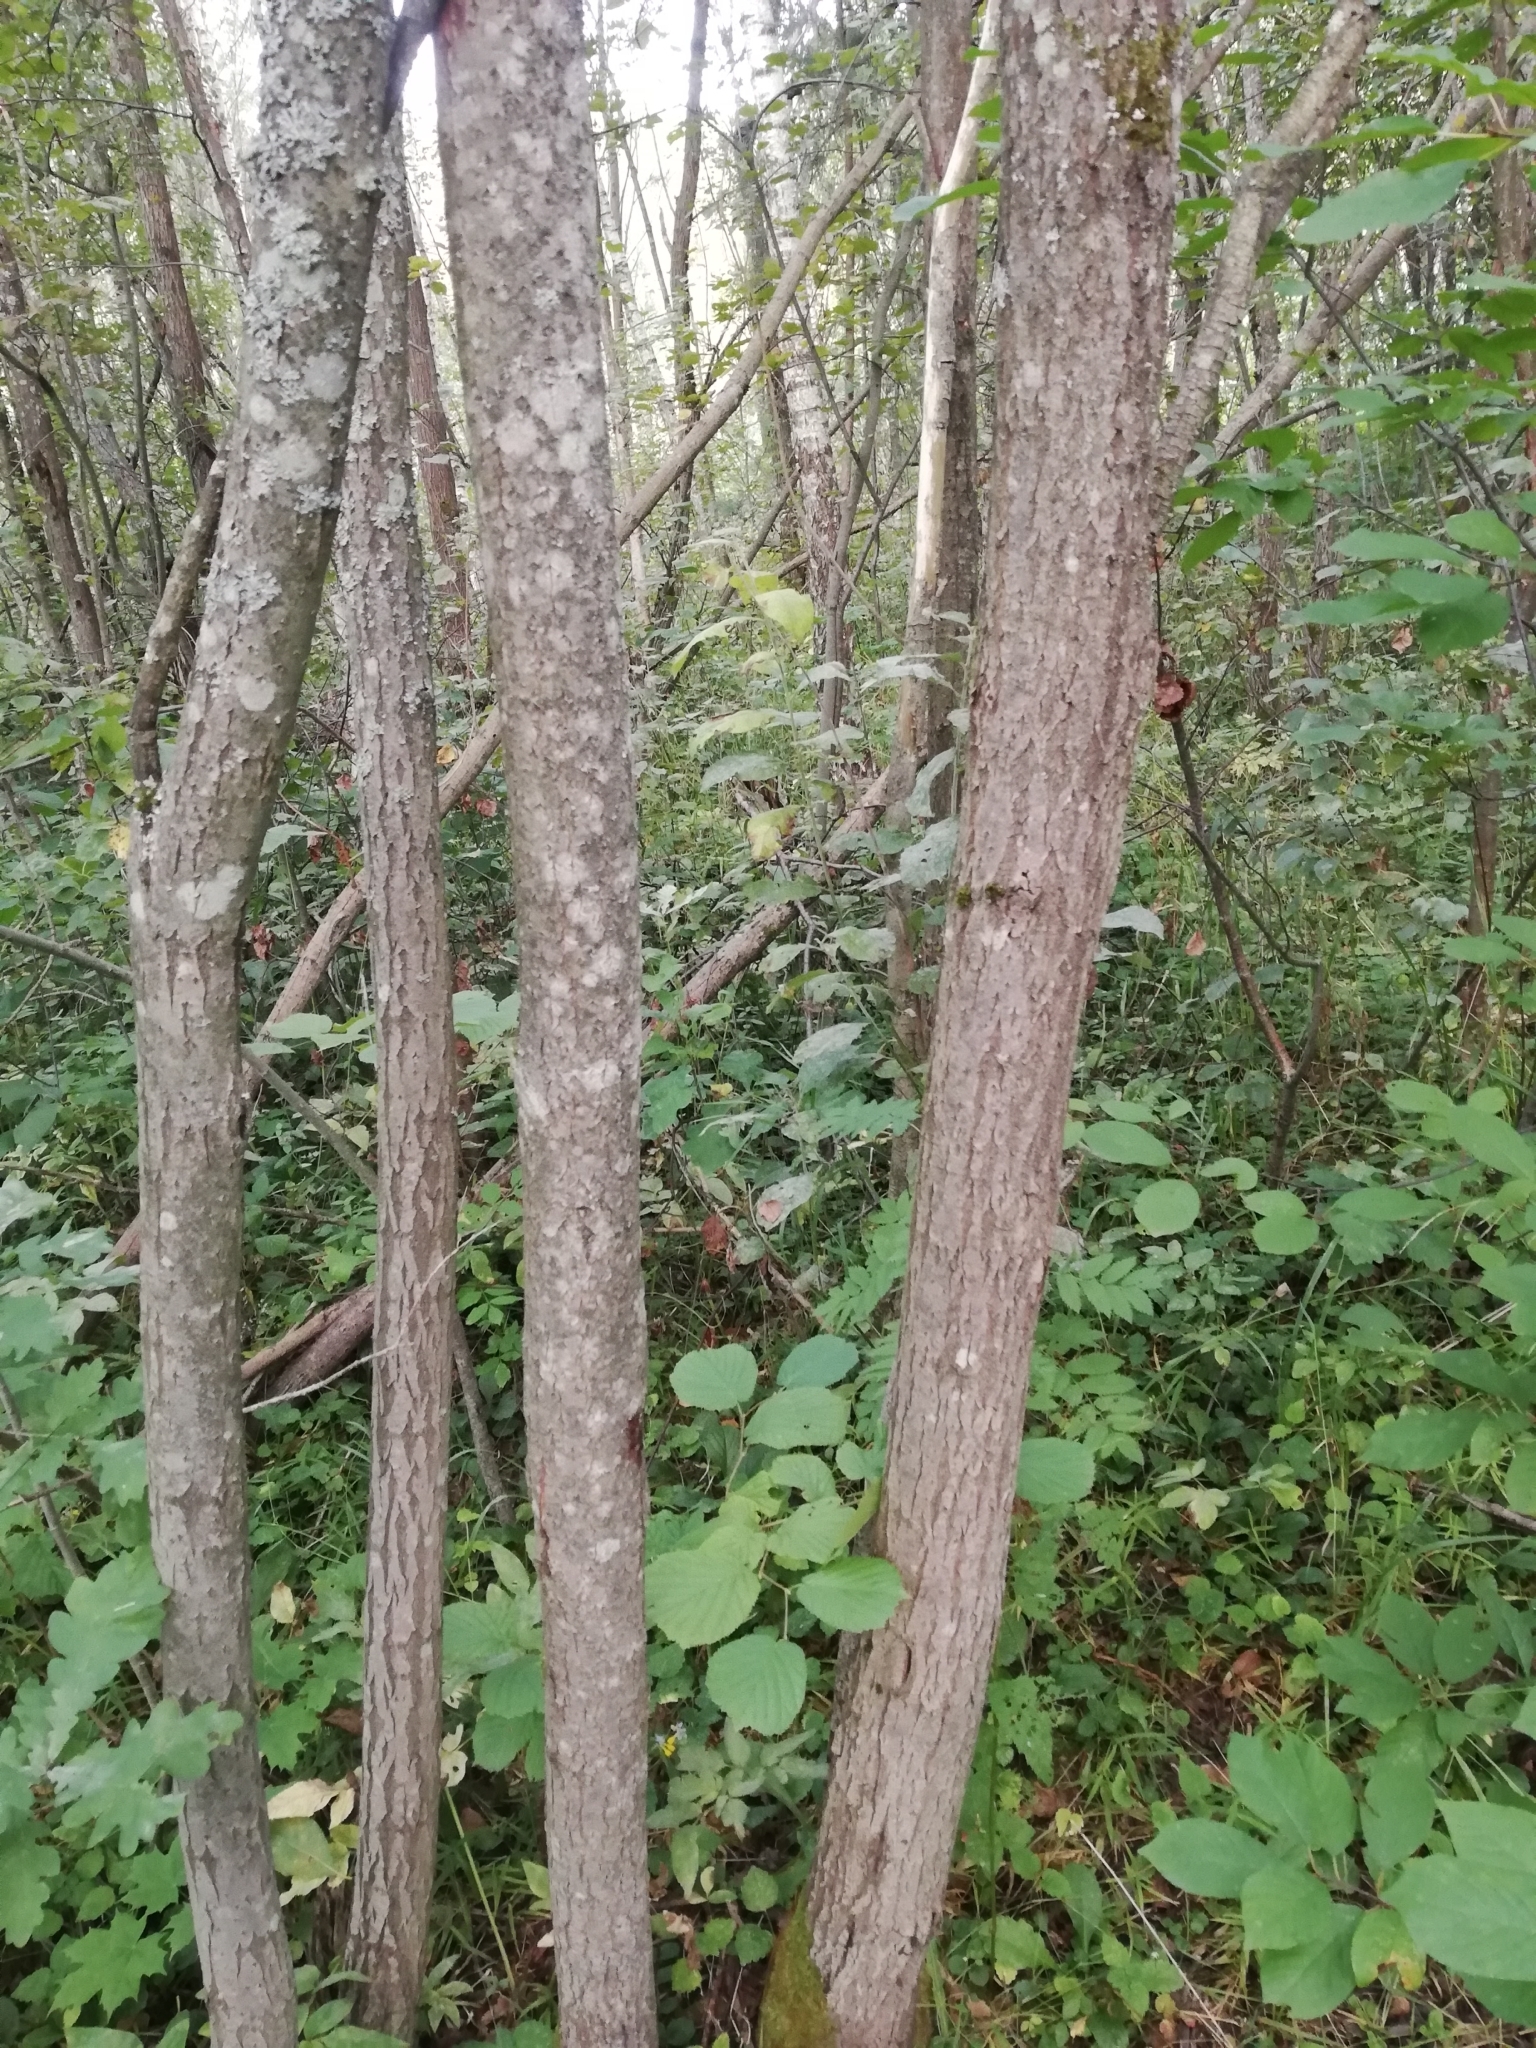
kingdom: Plantae
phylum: Tracheophyta
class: Magnoliopsida
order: Malpighiales
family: Salicaceae
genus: Salix
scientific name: Salix caprea
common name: Goat willow
